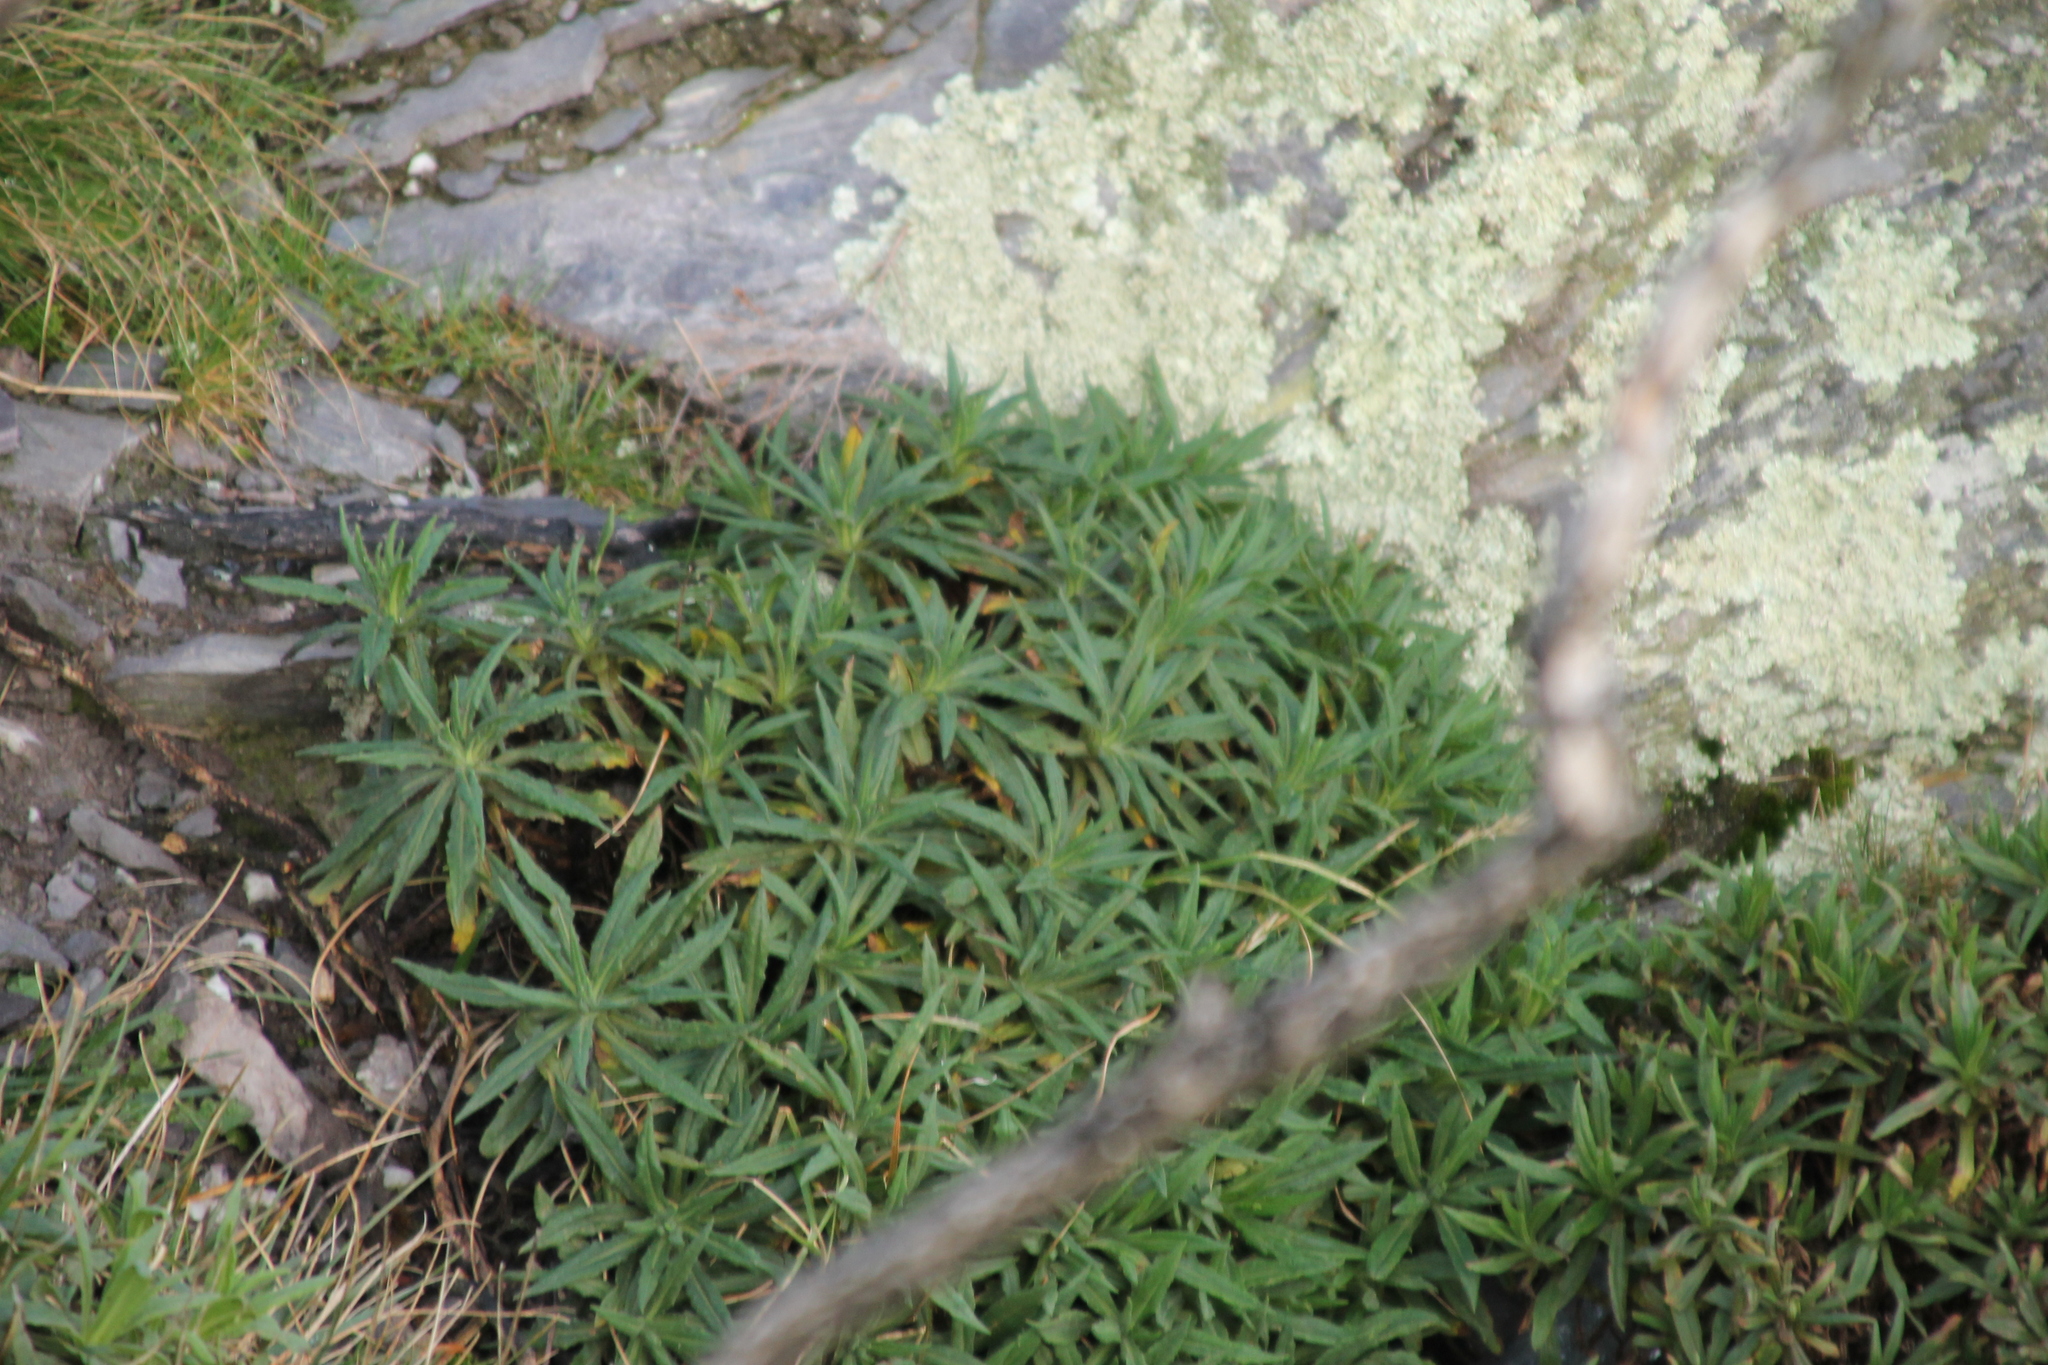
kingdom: Plantae
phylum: Tracheophyta
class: Magnoliopsida
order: Asterales
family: Asteraceae
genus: Xerochrysum
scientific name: Xerochrysum wilsonii
